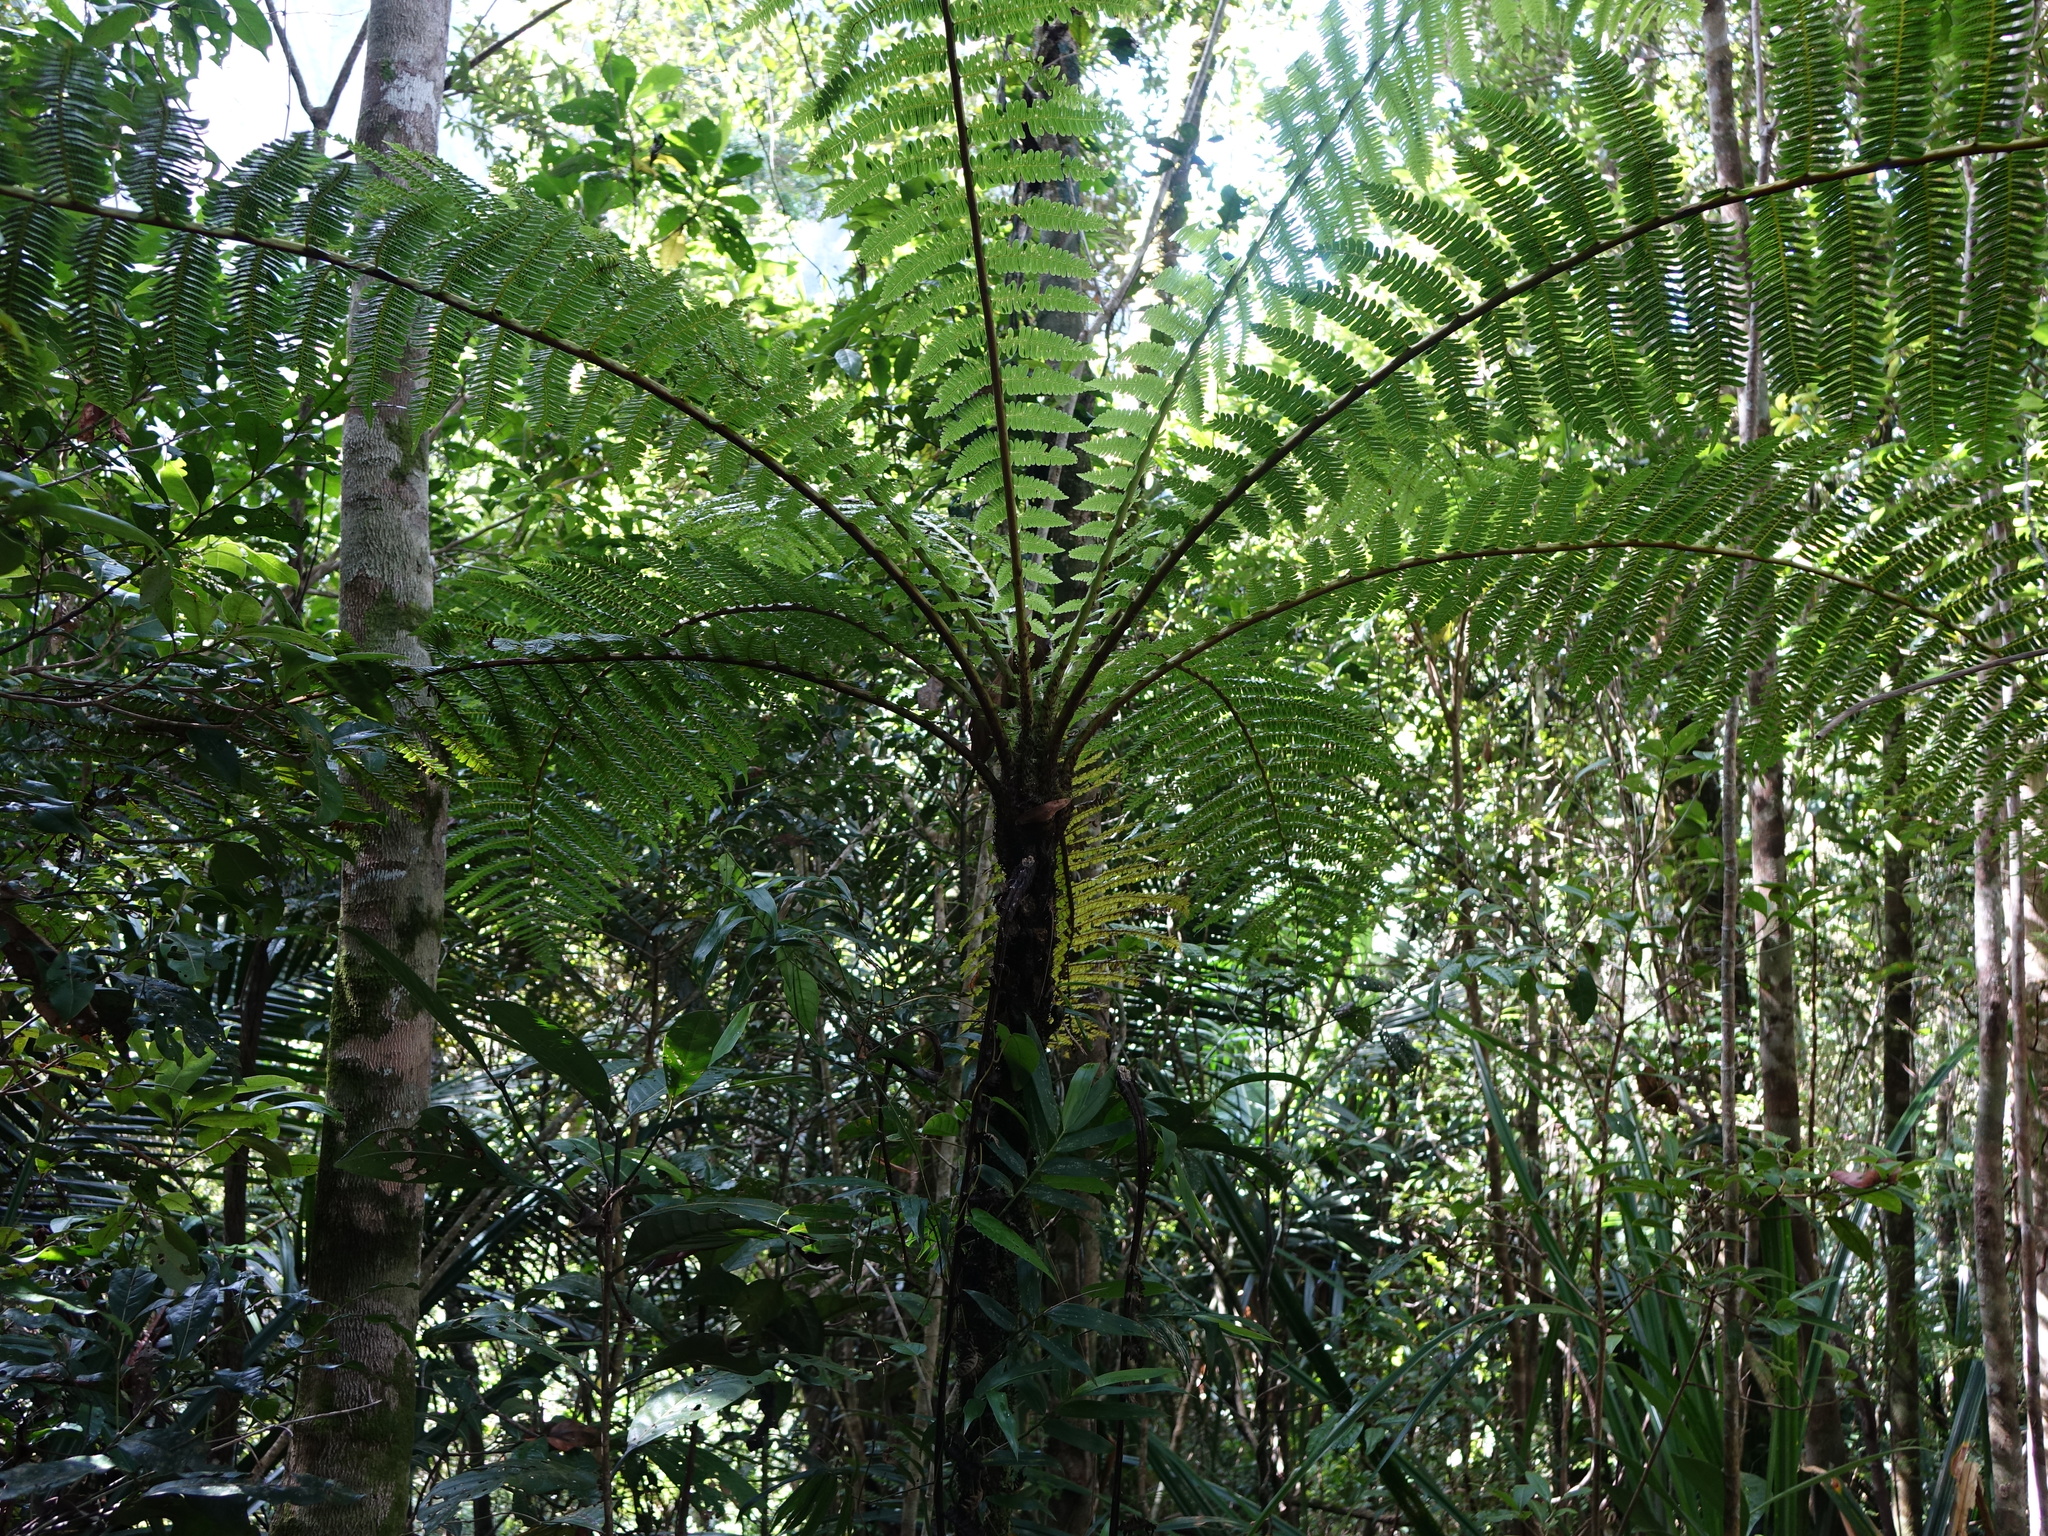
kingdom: Plantae
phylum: Tracheophyta
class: Polypodiopsida
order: Cyatheales
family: Cyatheaceae
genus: Alsophila
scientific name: Alsophila decrescens
